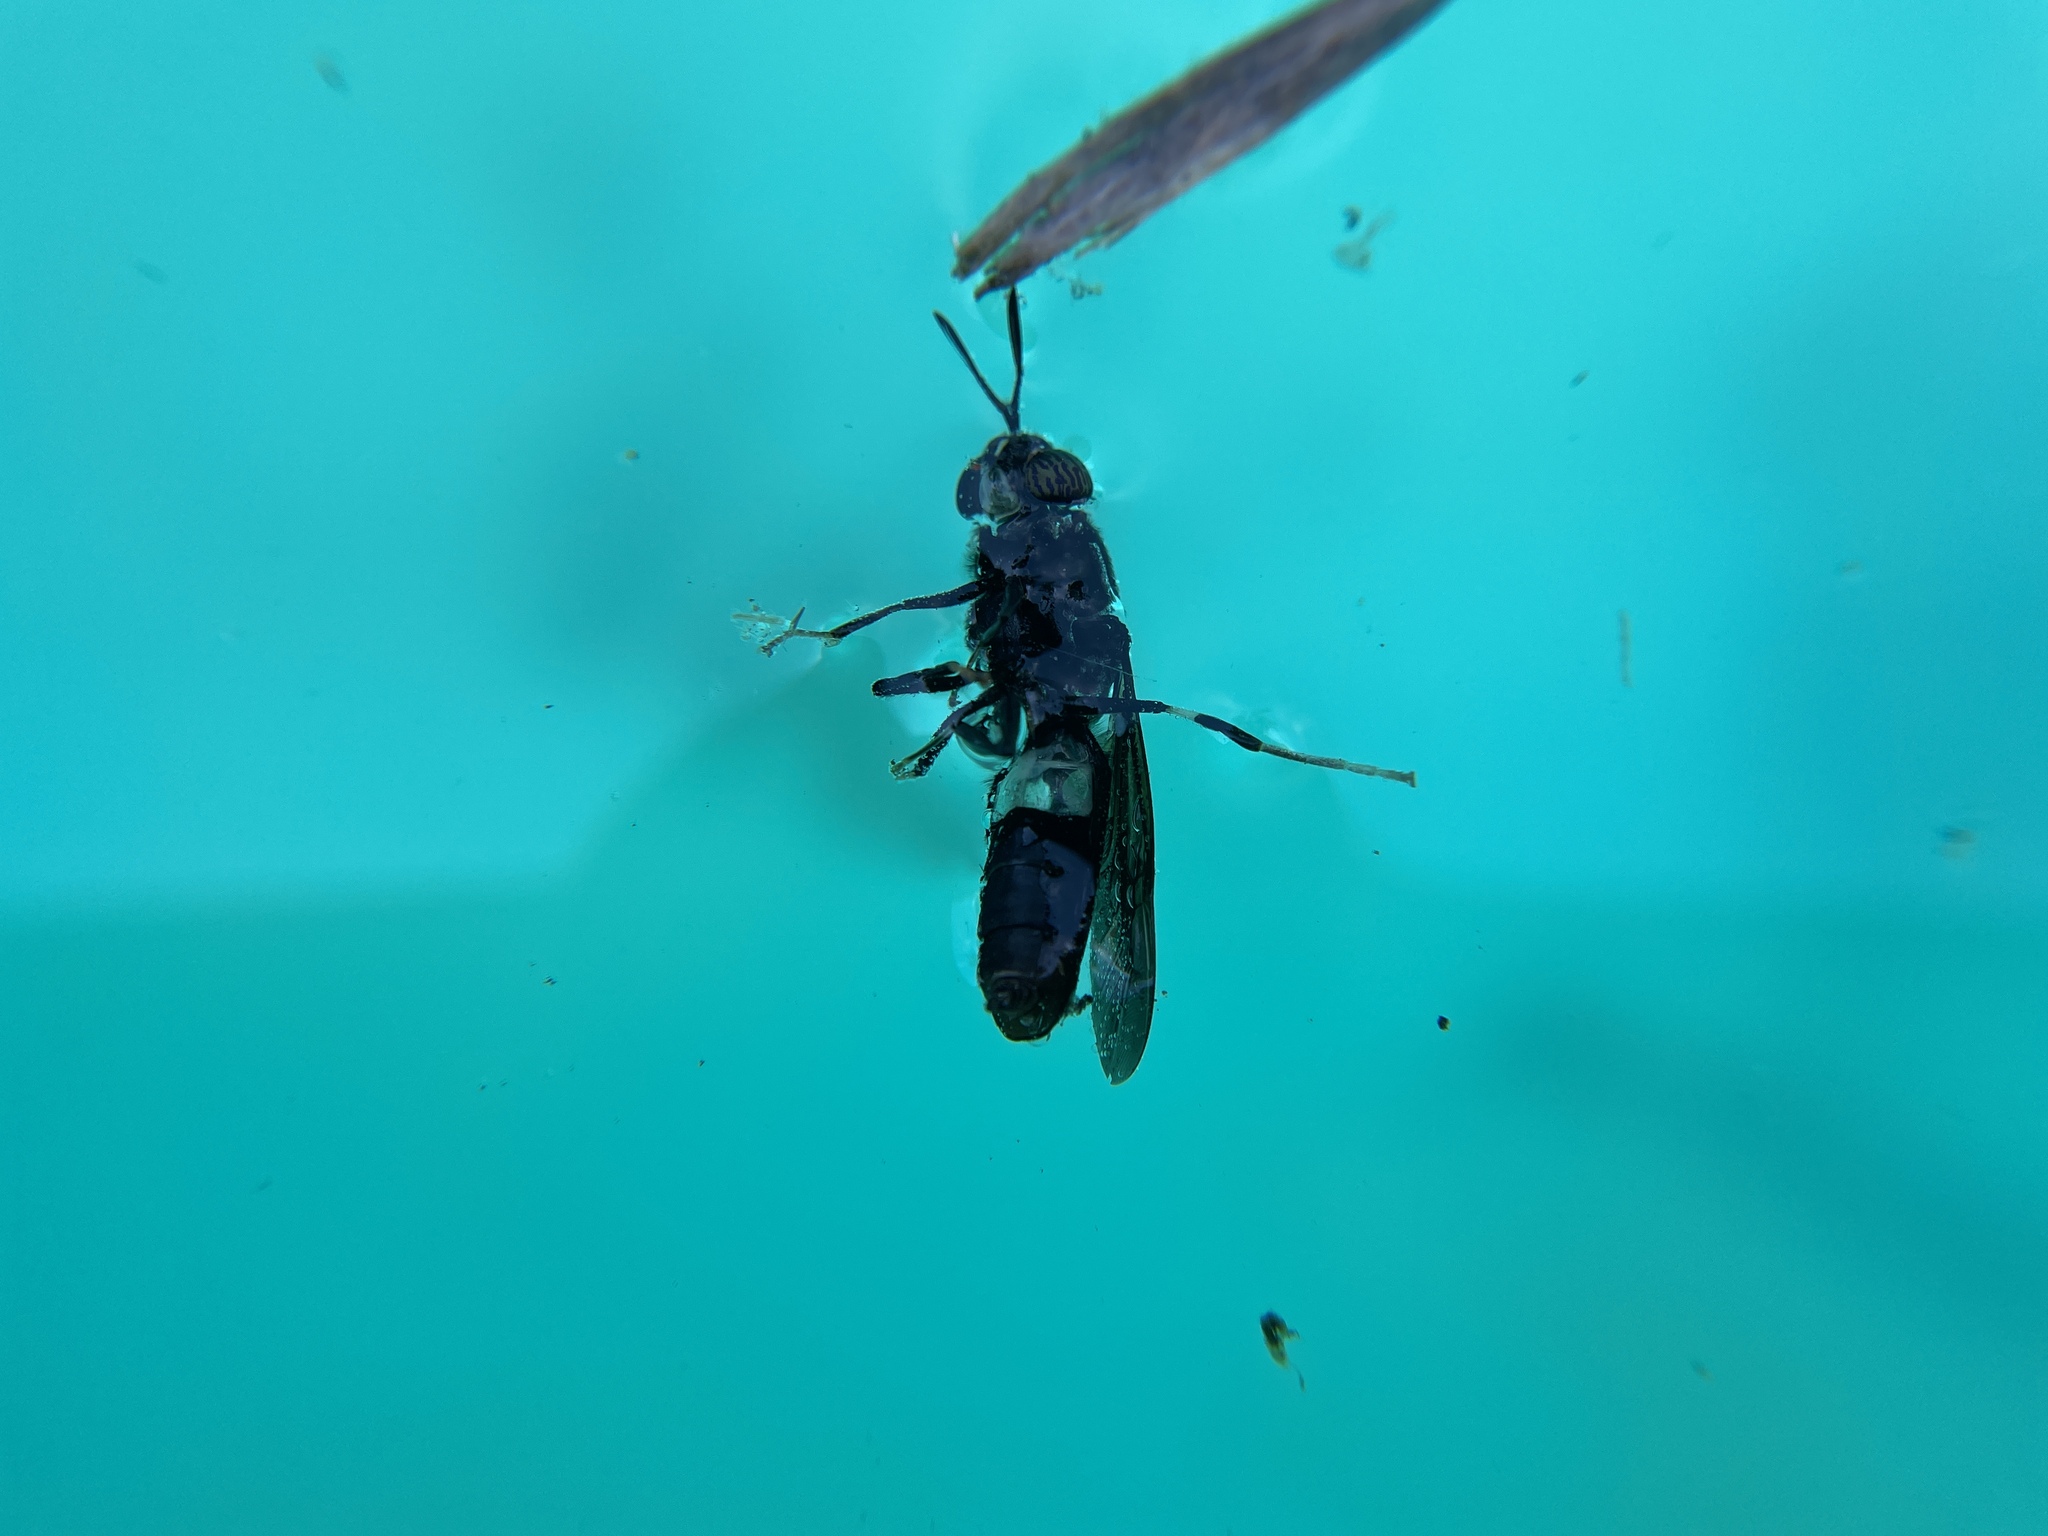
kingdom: Animalia
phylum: Arthropoda
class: Insecta
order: Diptera
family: Stratiomyidae
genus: Hermetia
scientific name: Hermetia illucens
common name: Black soldier fly
